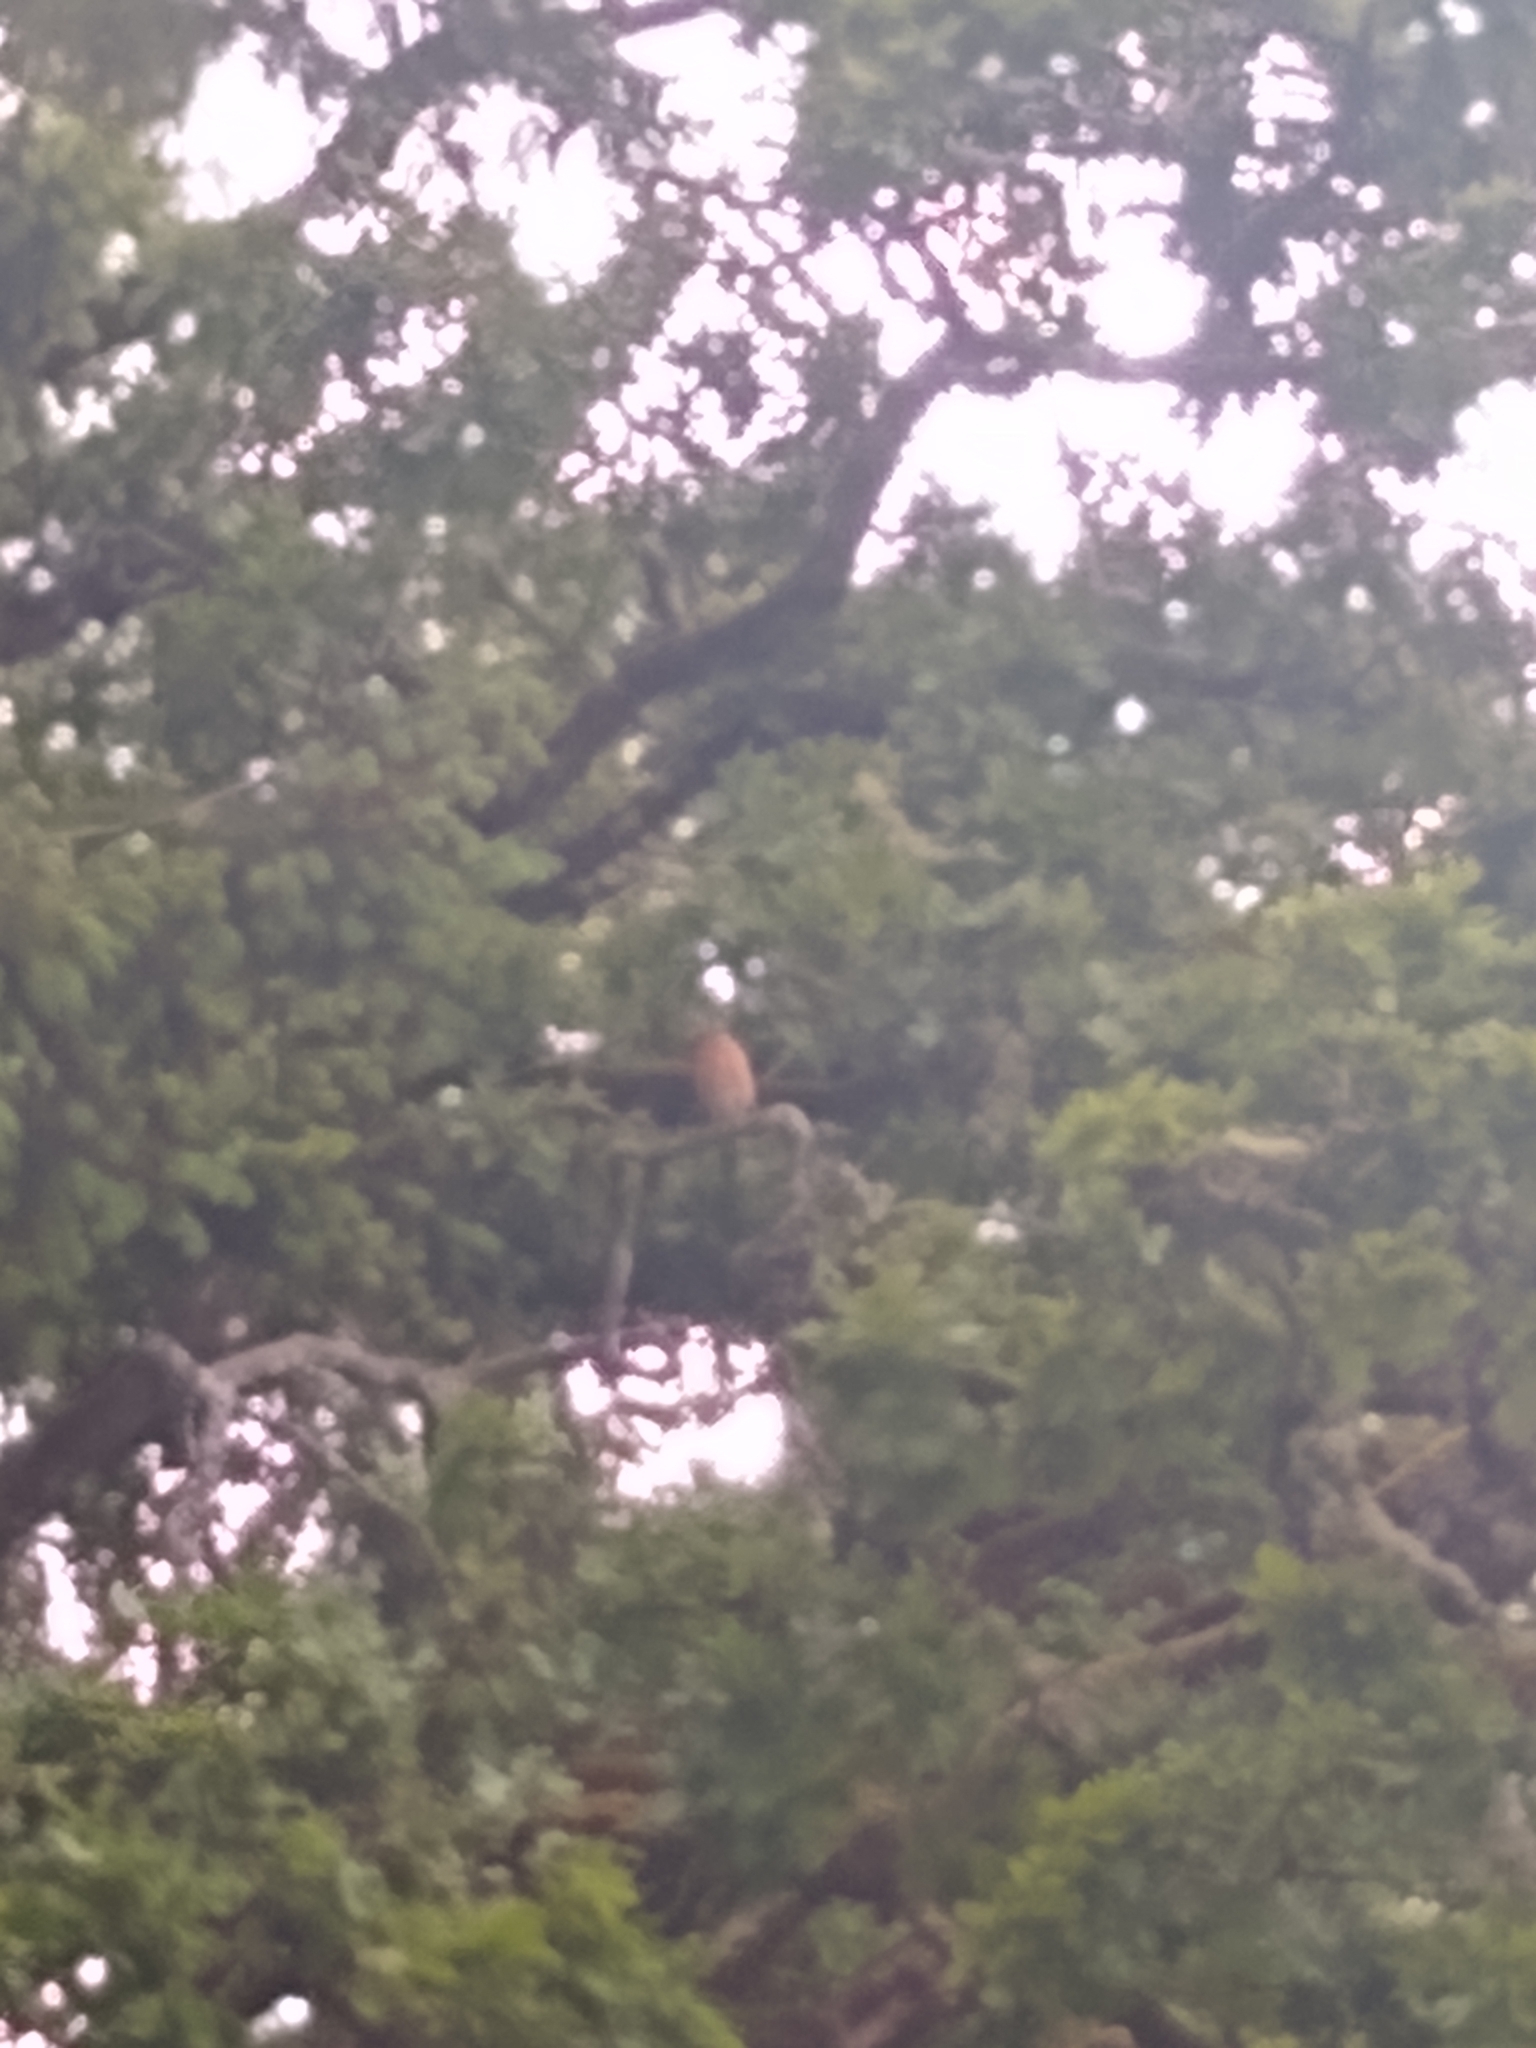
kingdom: Animalia
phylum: Chordata
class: Aves
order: Passeriformes
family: Turdidae
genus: Turdus
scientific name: Turdus migratorius
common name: American robin
